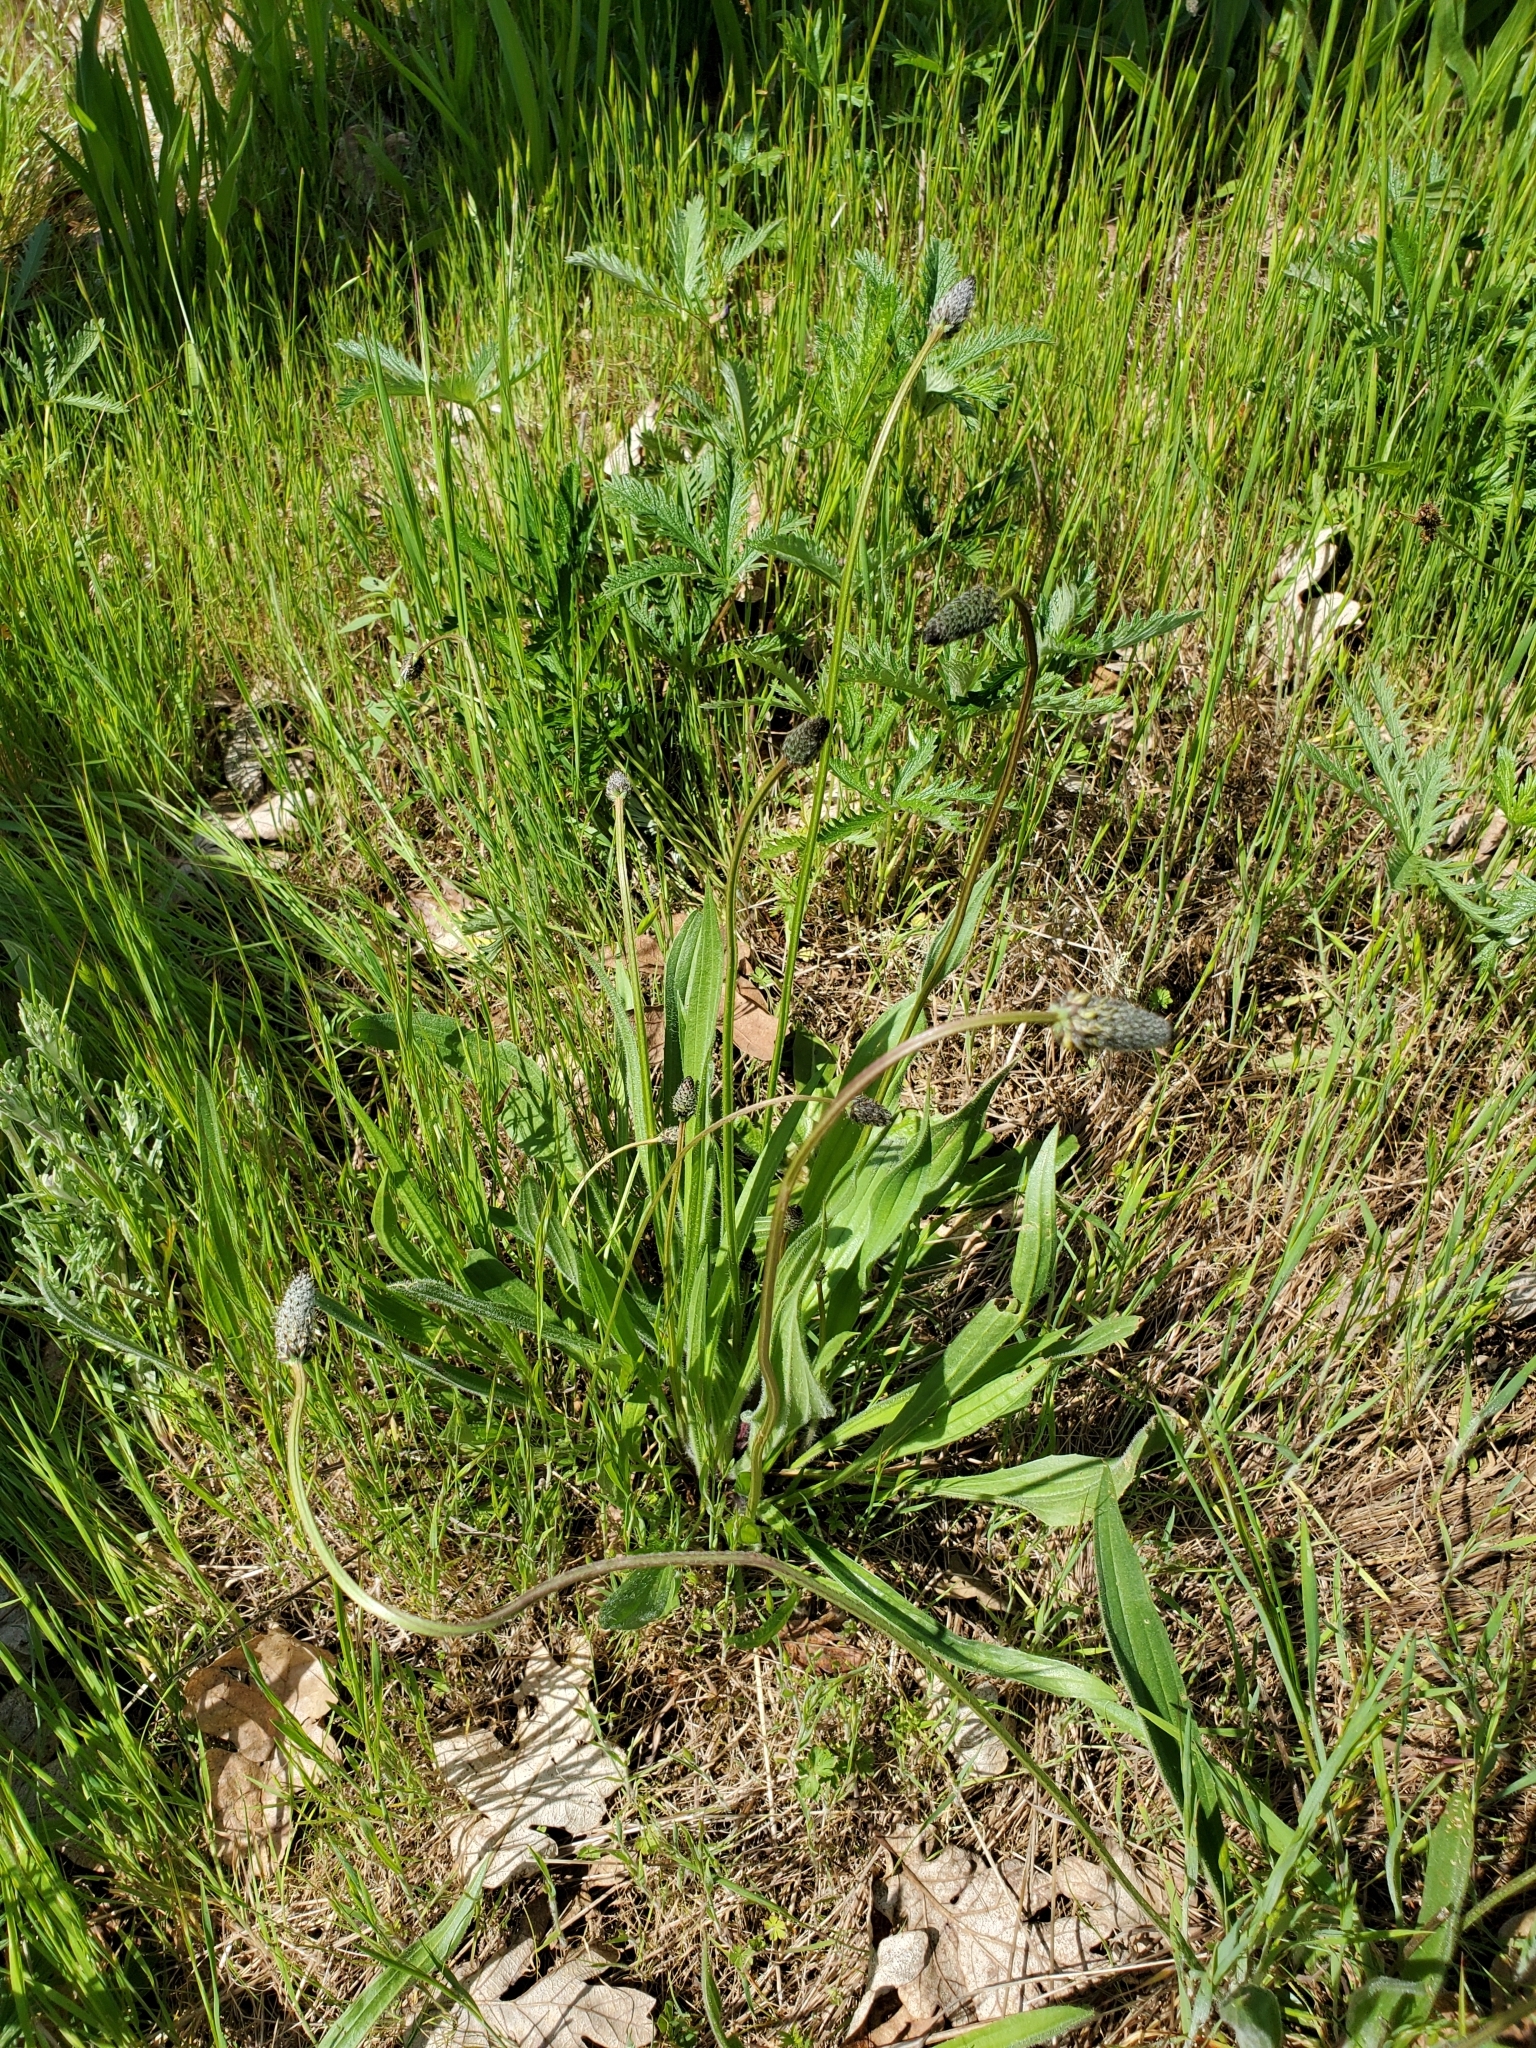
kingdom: Plantae
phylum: Tracheophyta
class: Magnoliopsida
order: Lamiales
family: Plantaginaceae
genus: Plantago
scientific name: Plantago lanceolata
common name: Ribwort plantain
